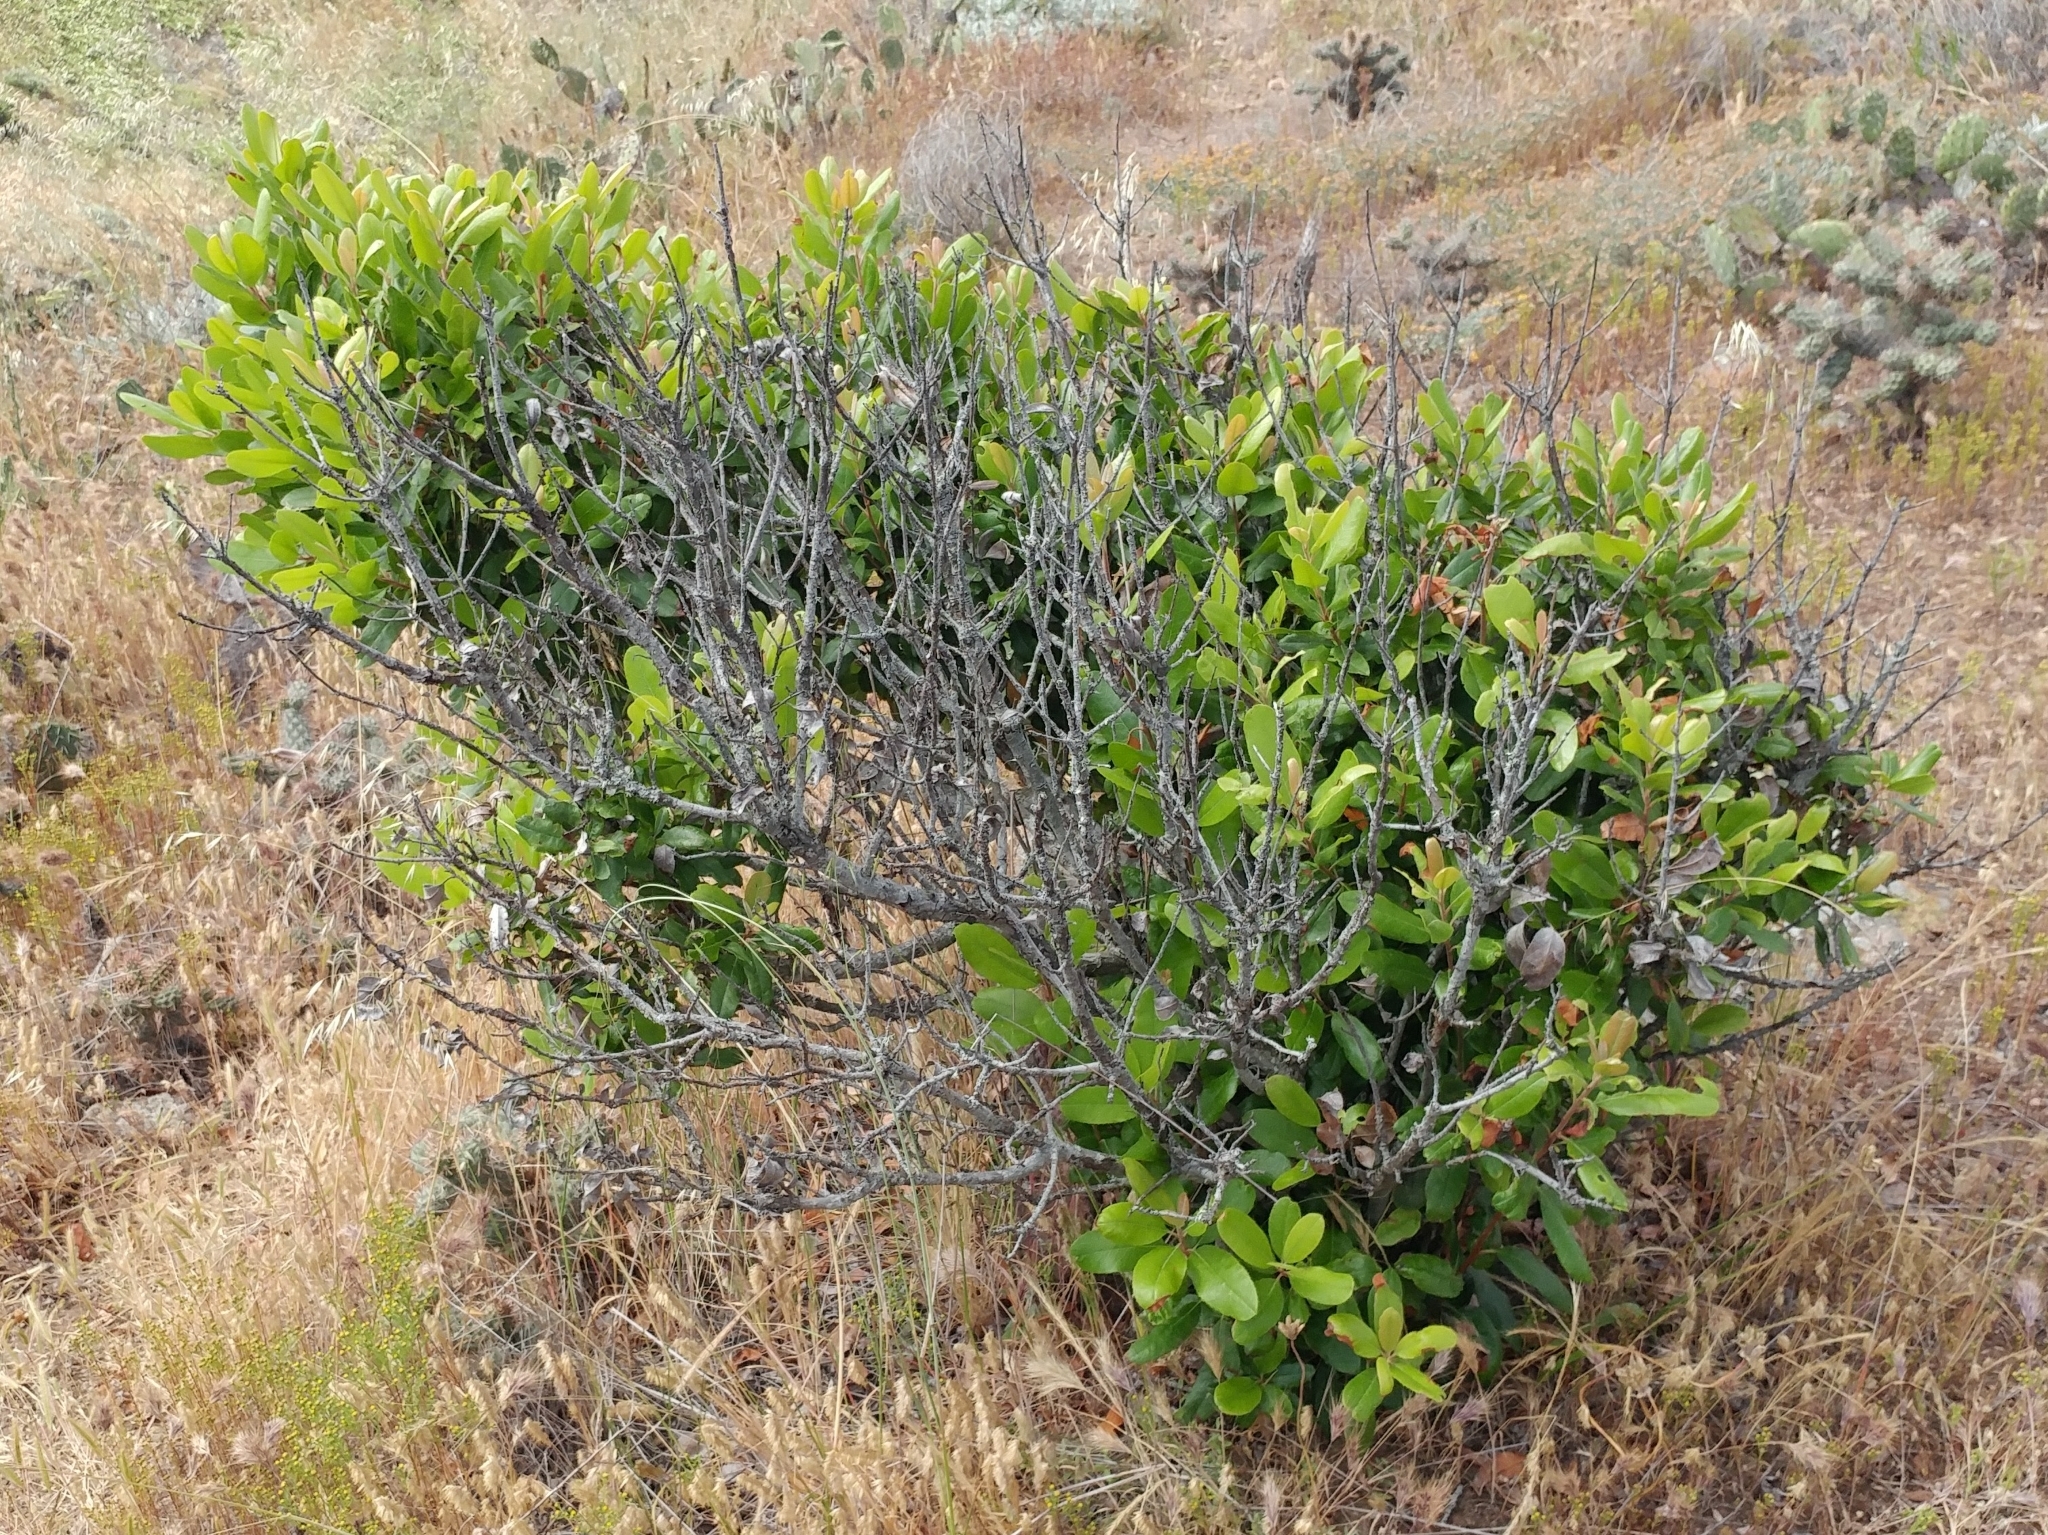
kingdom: Plantae
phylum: Tracheophyta
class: Magnoliopsida
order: Rosales
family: Rosaceae
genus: Heteromeles
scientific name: Heteromeles arbutifolia
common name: California-holly
